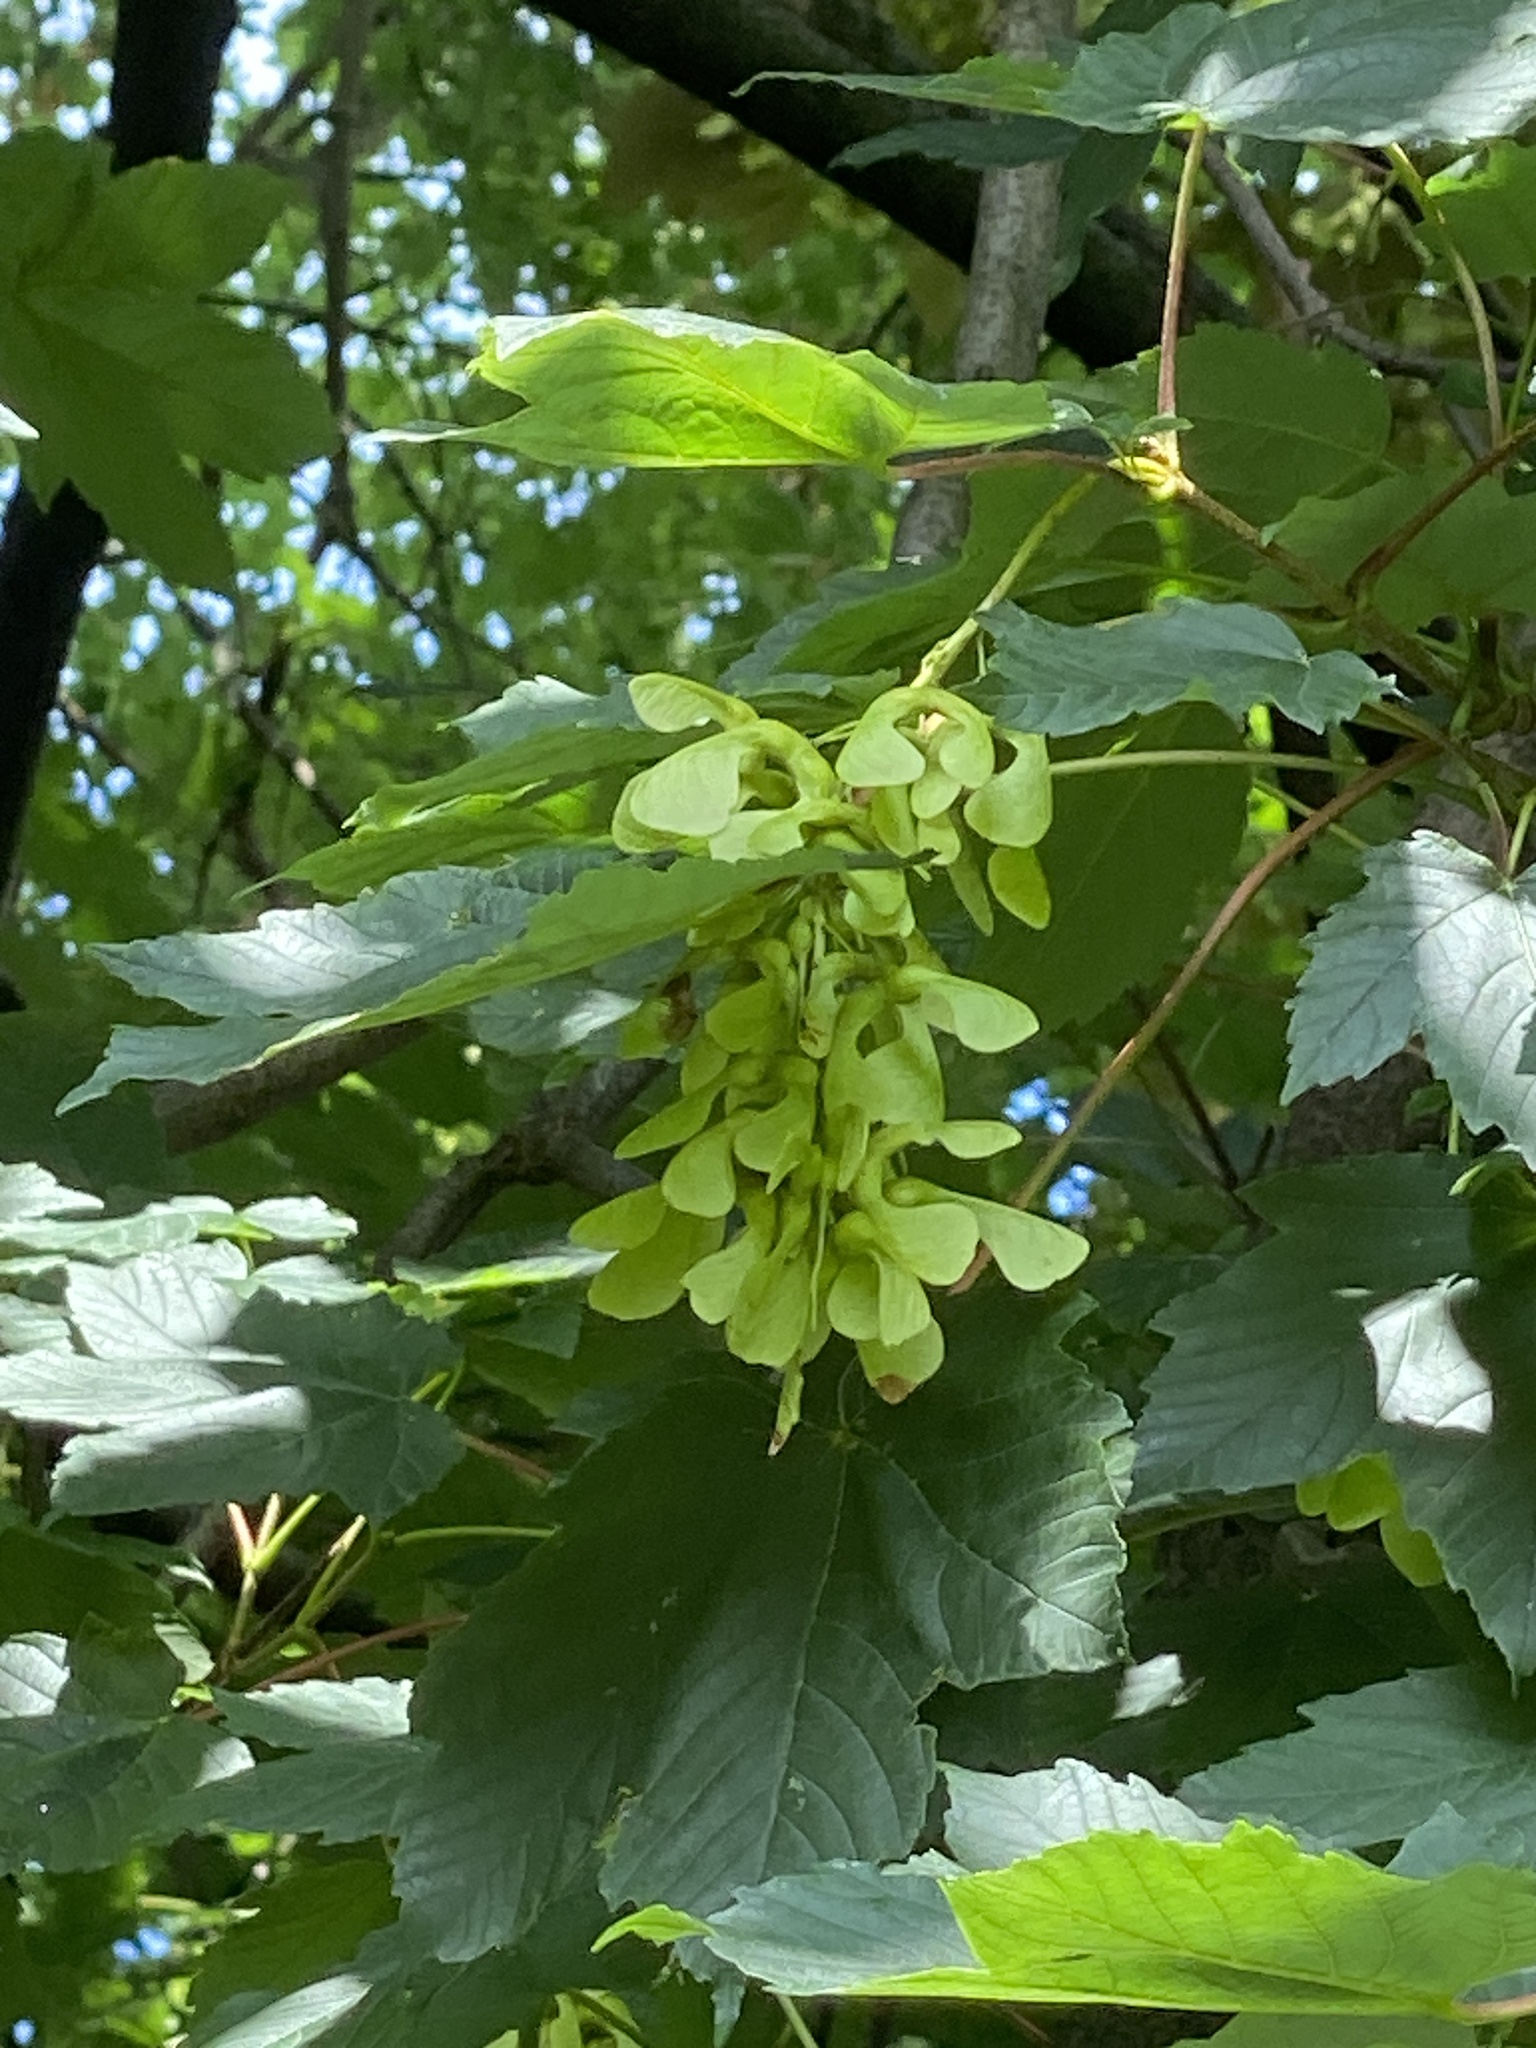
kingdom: Plantae
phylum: Tracheophyta
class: Magnoliopsida
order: Sapindales
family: Sapindaceae
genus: Acer
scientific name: Acer pseudoplatanus
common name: Sycamore
